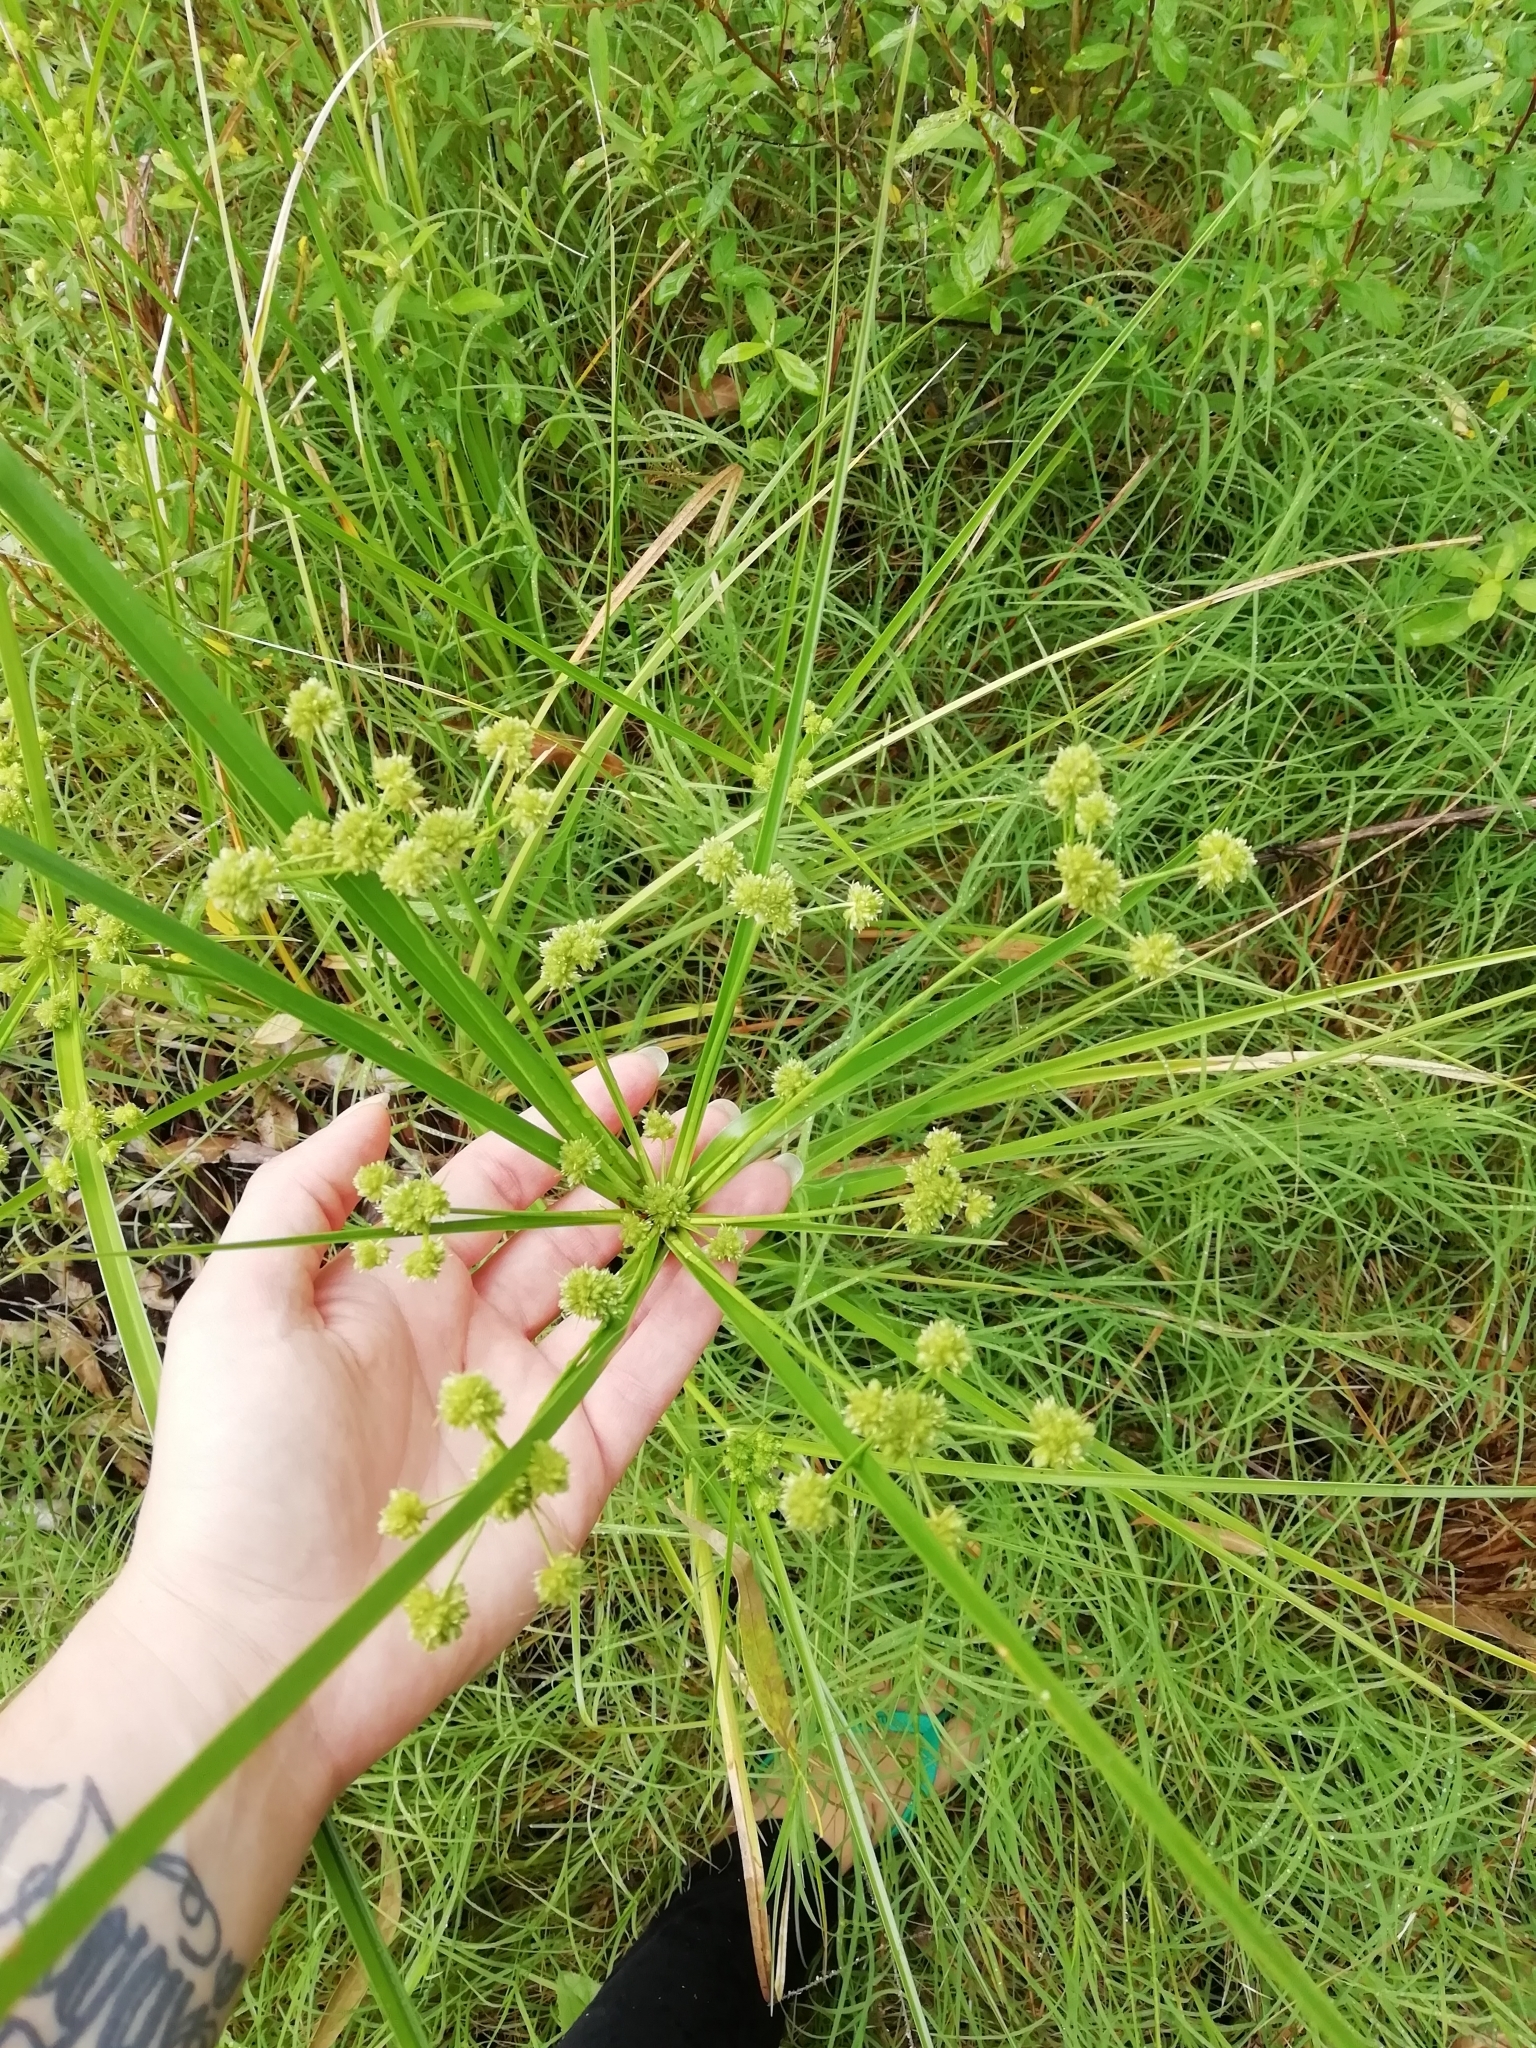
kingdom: Plantae
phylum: Tracheophyta
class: Liliopsida
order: Poales
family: Cyperaceae
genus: Cyperus
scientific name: Cyperus rigens
